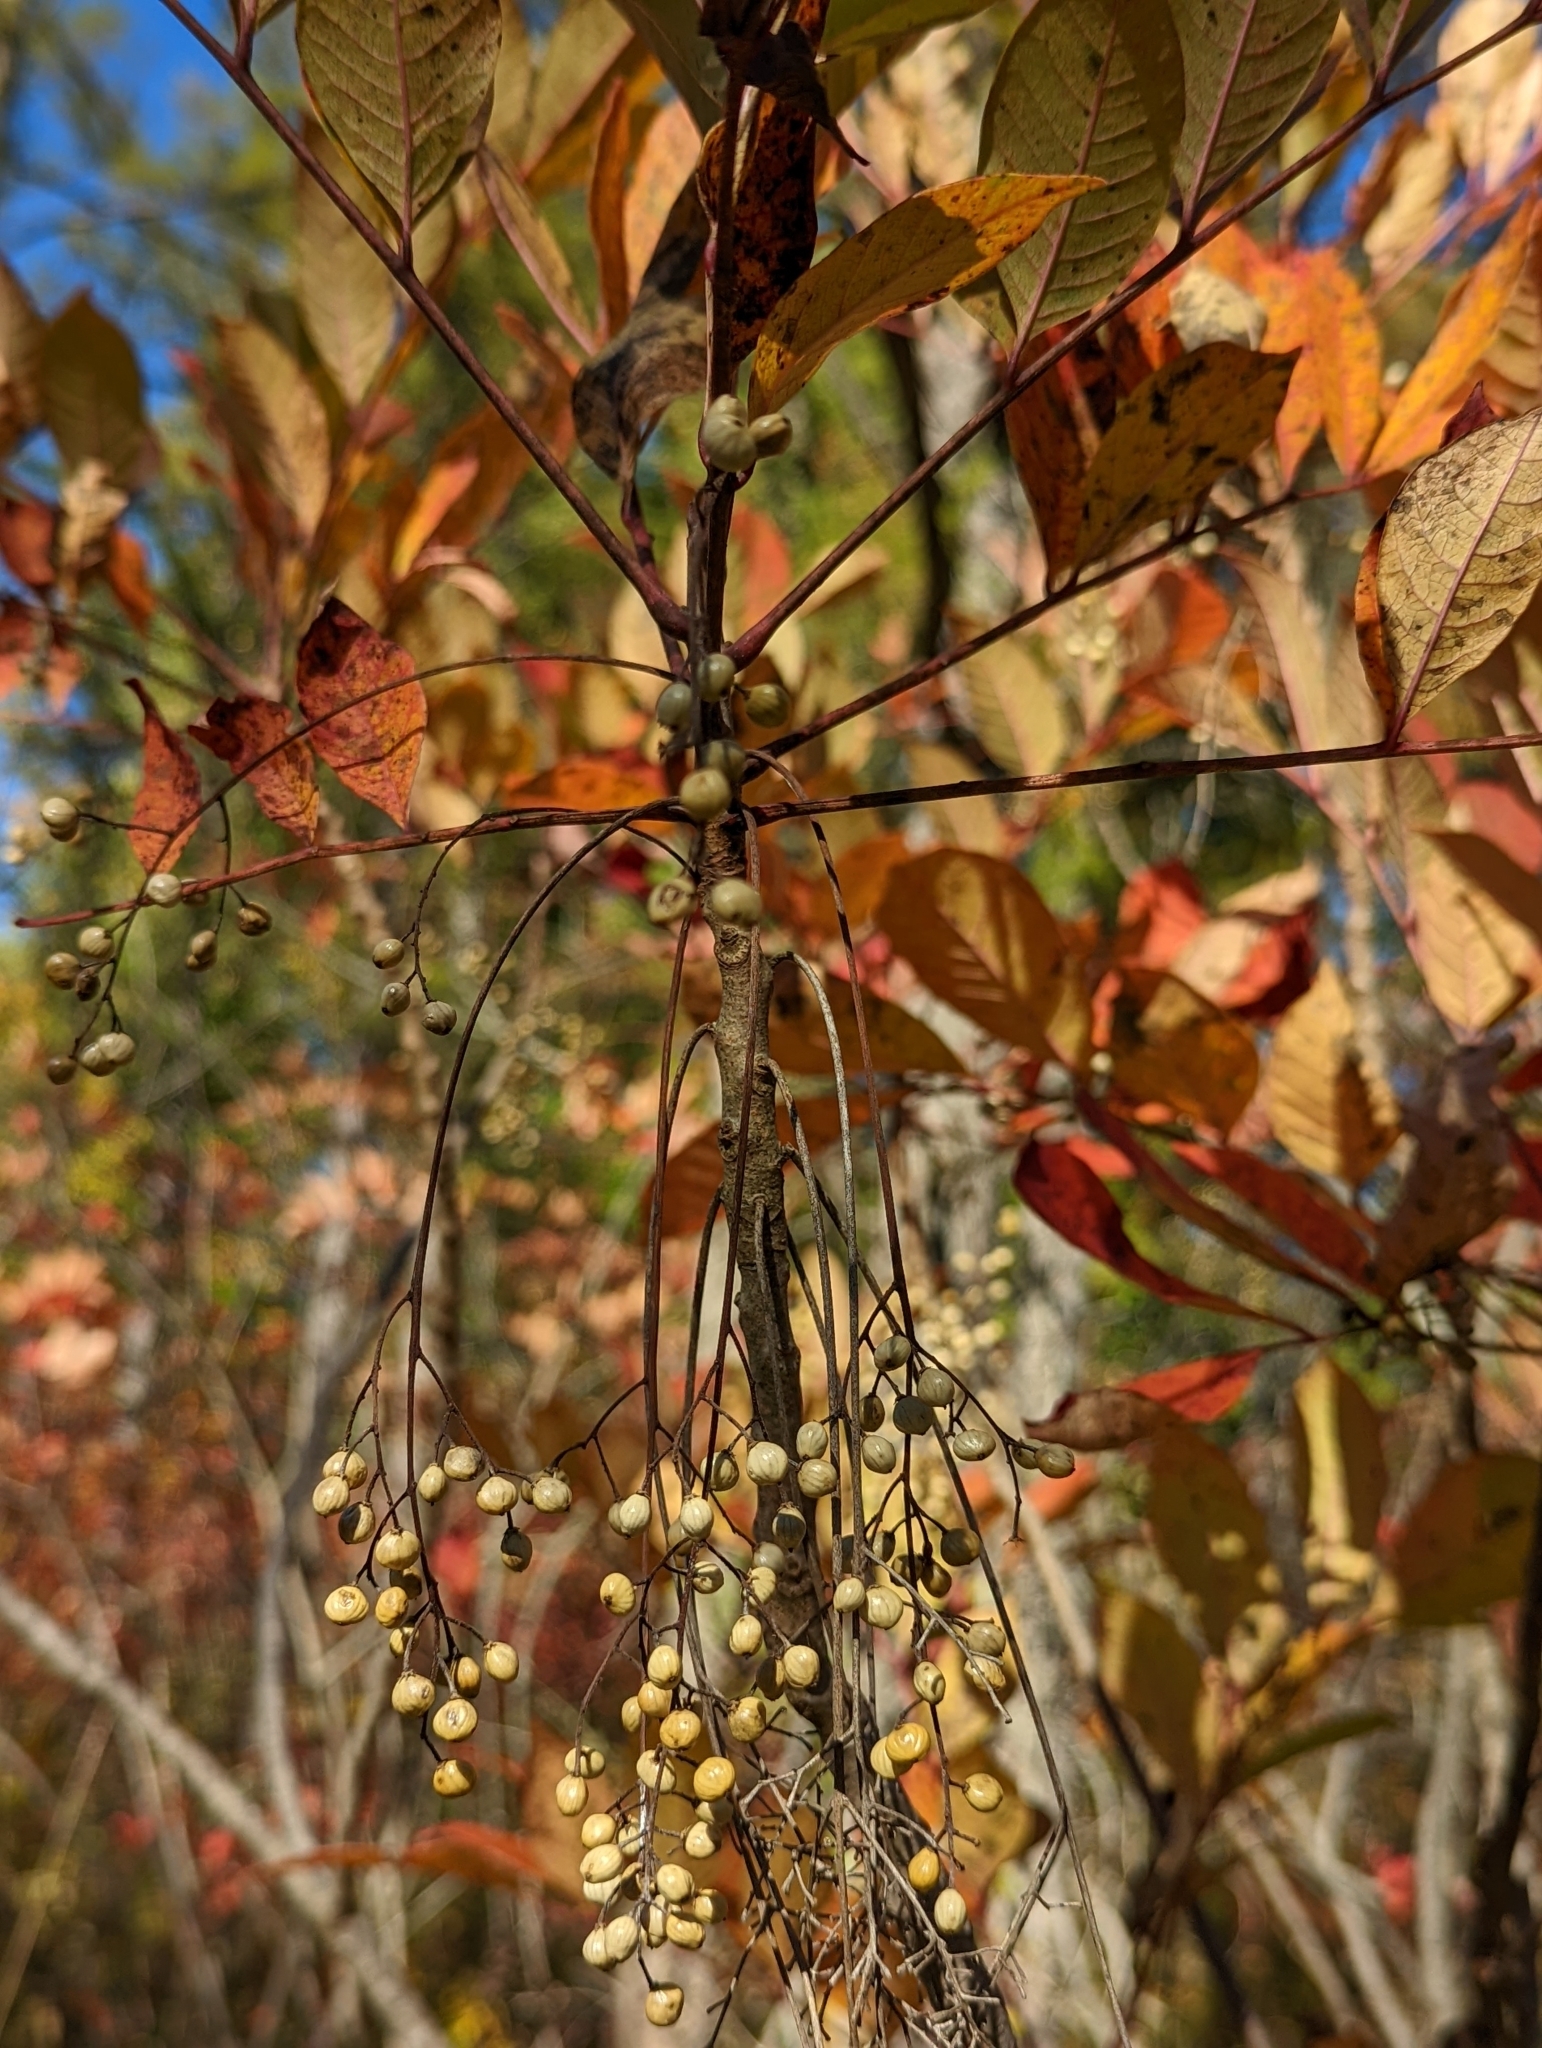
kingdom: Plantae
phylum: Tracheophyta
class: Magnoliopsida
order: Sapindales
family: Anacardiaceae
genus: Toxicodendron
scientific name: Toxicodendron vernix
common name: Poison sumac
